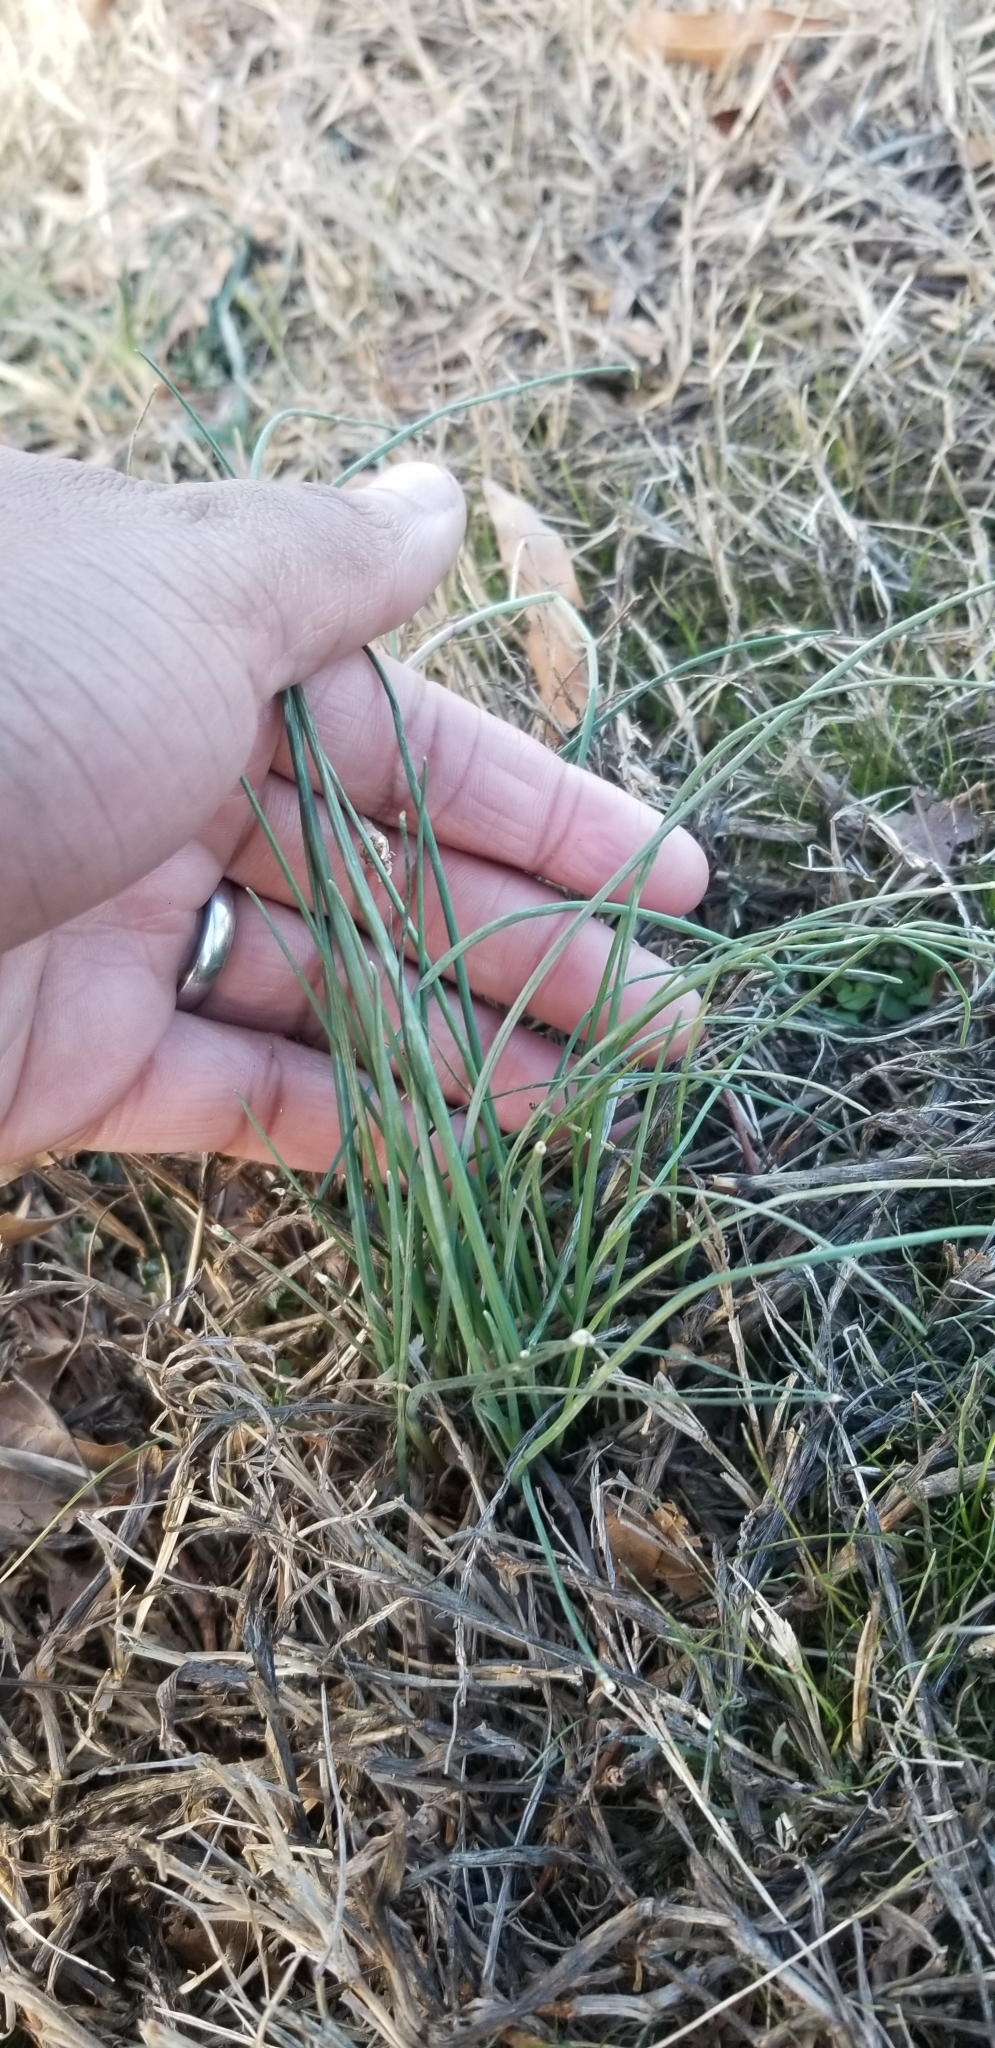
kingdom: Plantae
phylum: Tracheophyta
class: Liliopsida
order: Asparagales
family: Amaryllidaceae
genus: Allium
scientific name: Allium vineale
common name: Crow garlic
